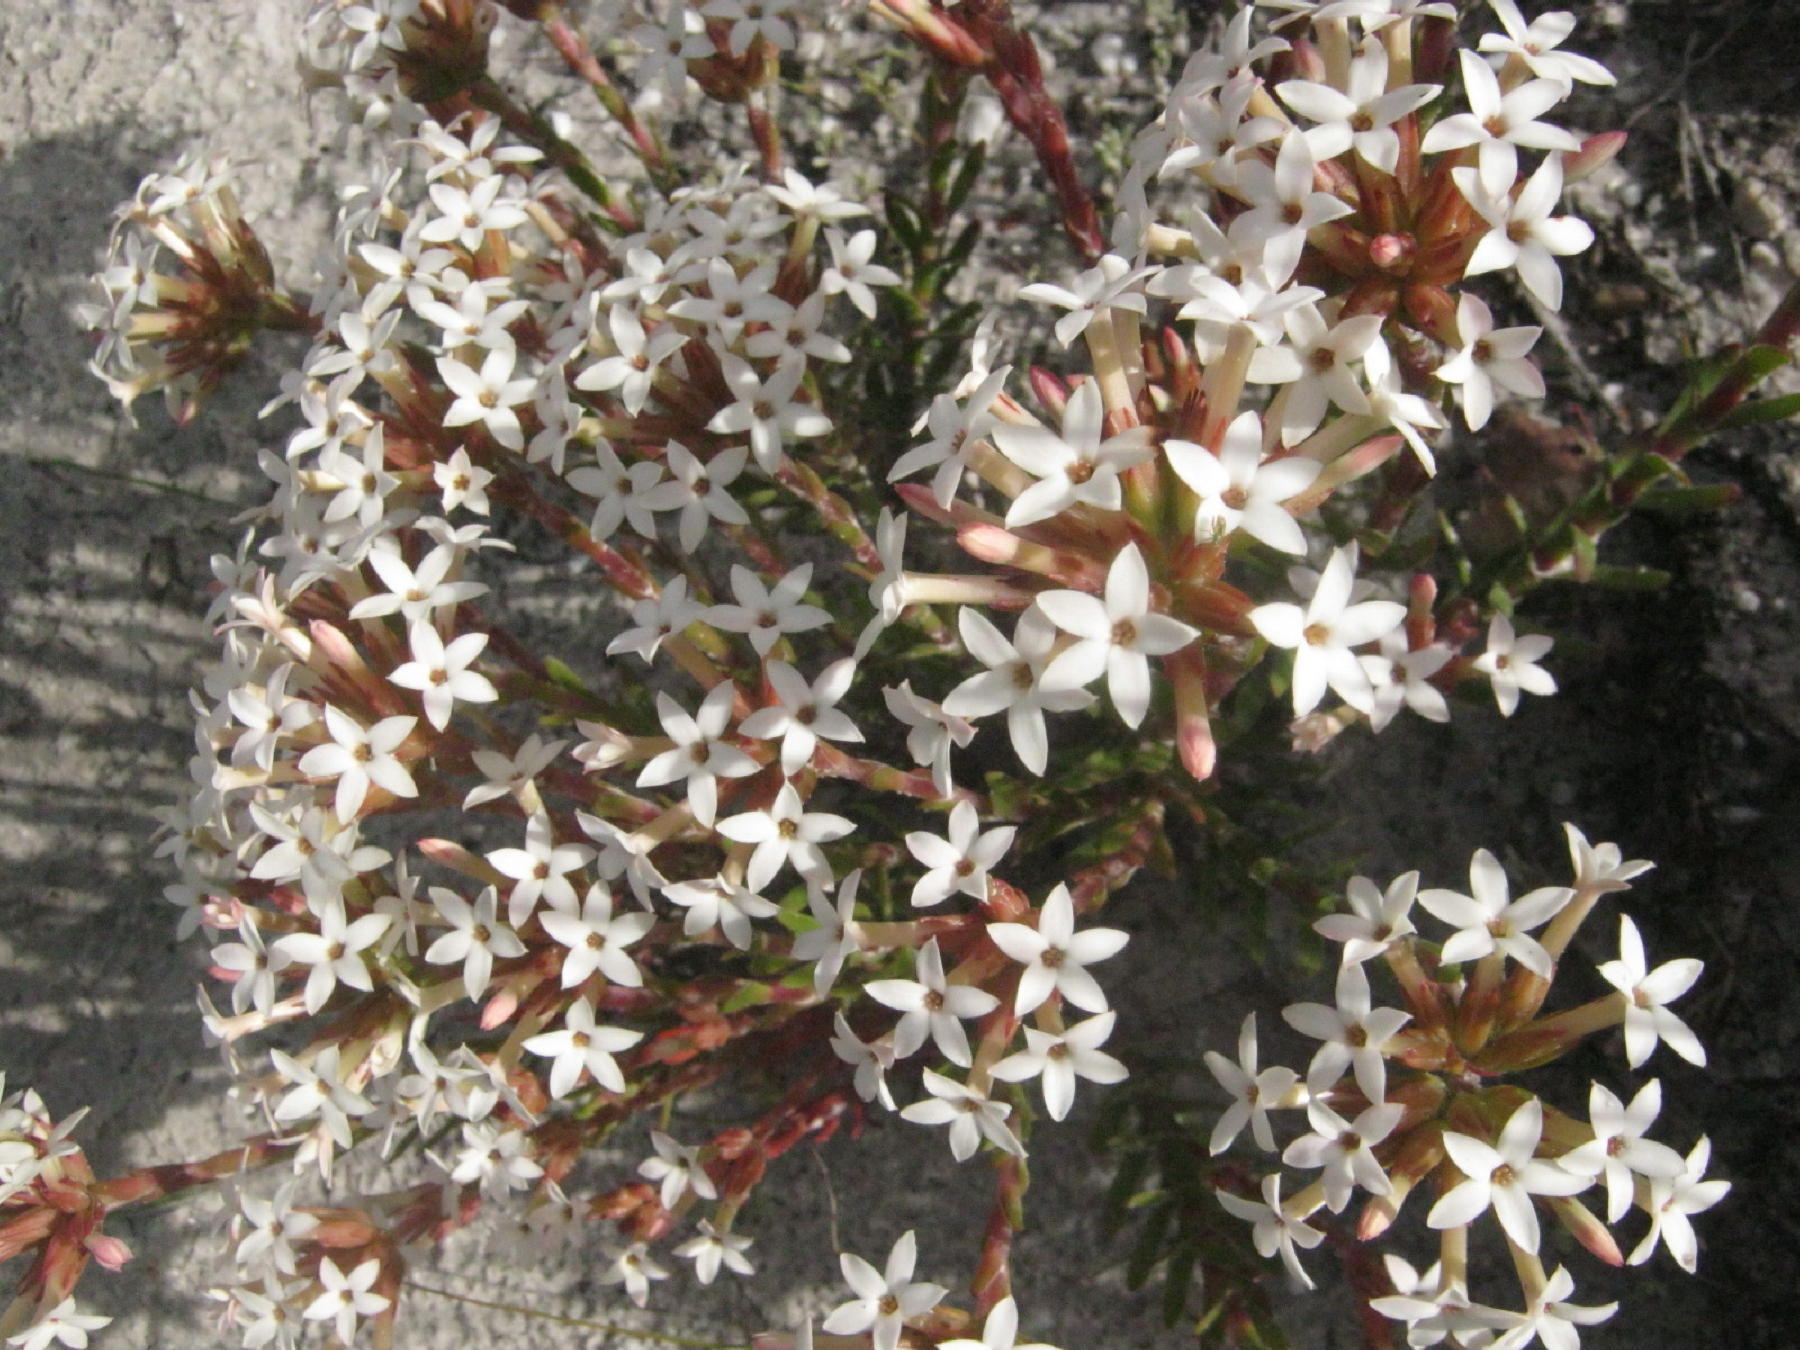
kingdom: Plantae
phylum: Tracheophyta
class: Magnoliopsida
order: Saxifragales
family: Crassulaceae
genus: Crassula
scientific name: Crassula fascicularis
